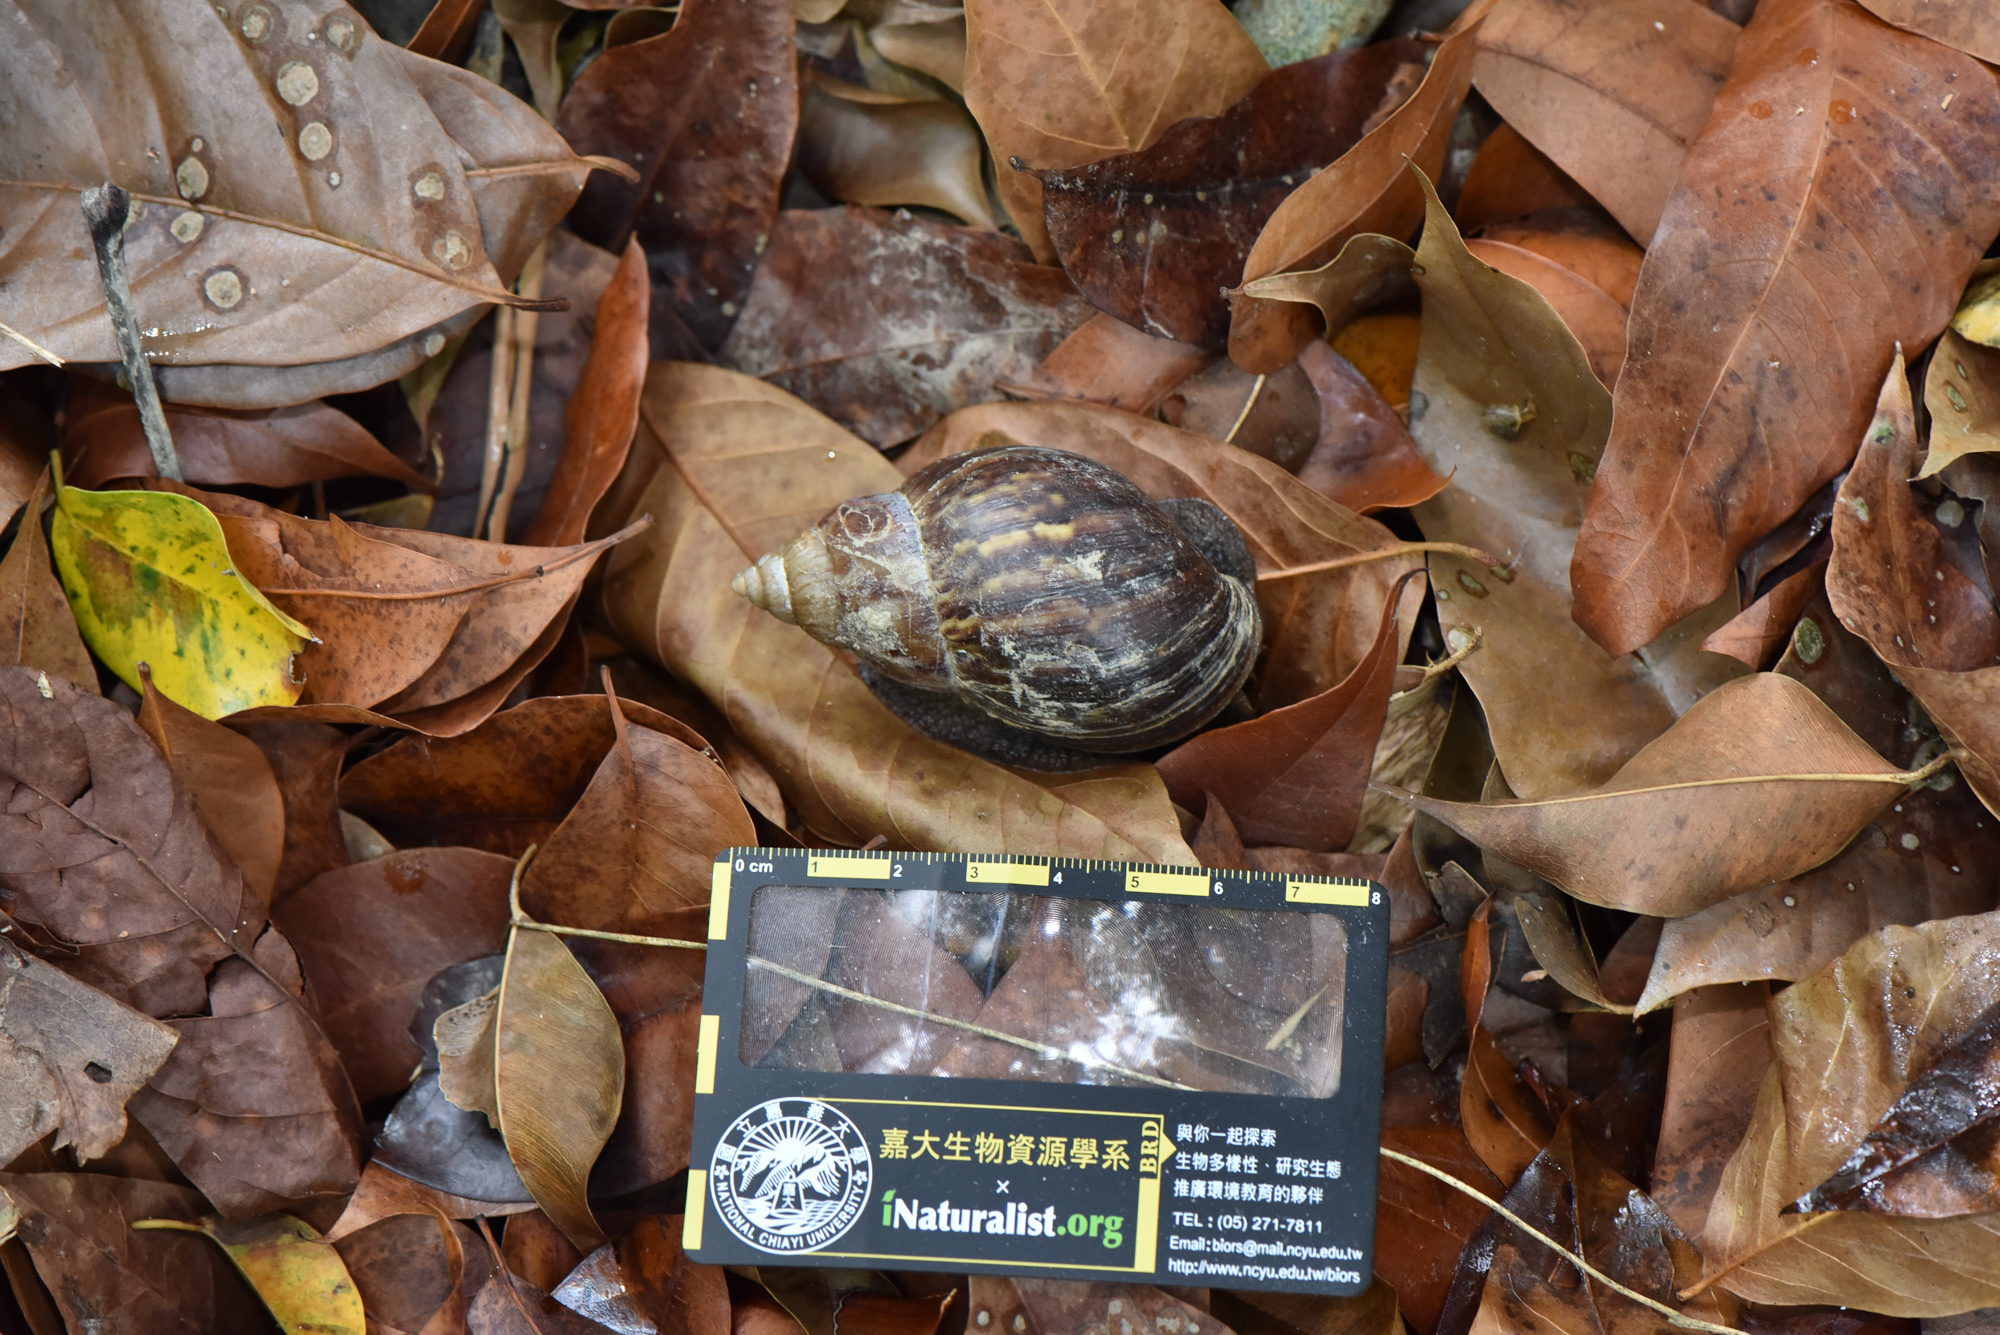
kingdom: Animalia
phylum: Mollusca
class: Gastropoda
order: Stylommatophora
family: Achatinidae
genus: Lissachatina
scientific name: Lissachatina fulica
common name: Giant african snail
